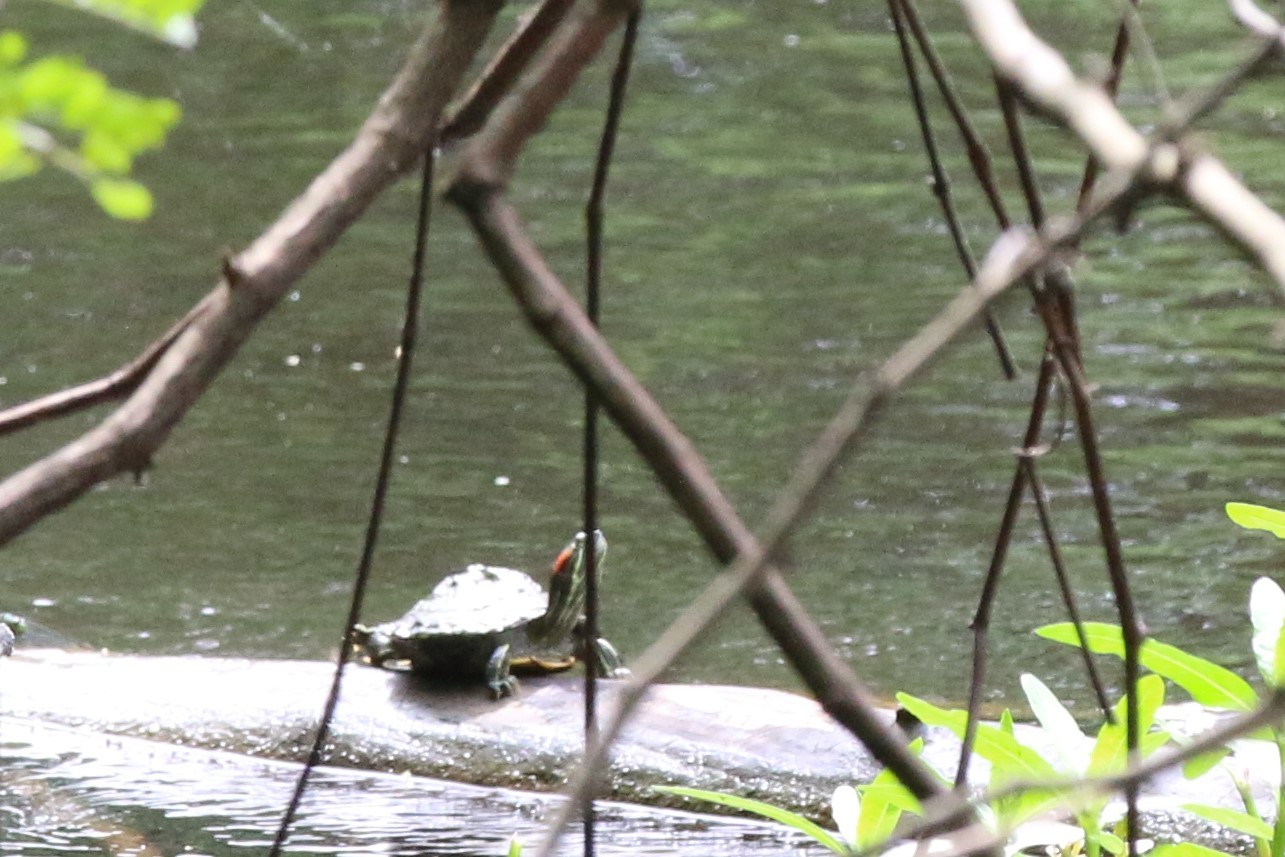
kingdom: Animalia
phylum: Chordata
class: Testudines
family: Emydidae
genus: Trachemys
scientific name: Trachemys scripta
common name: Slider
